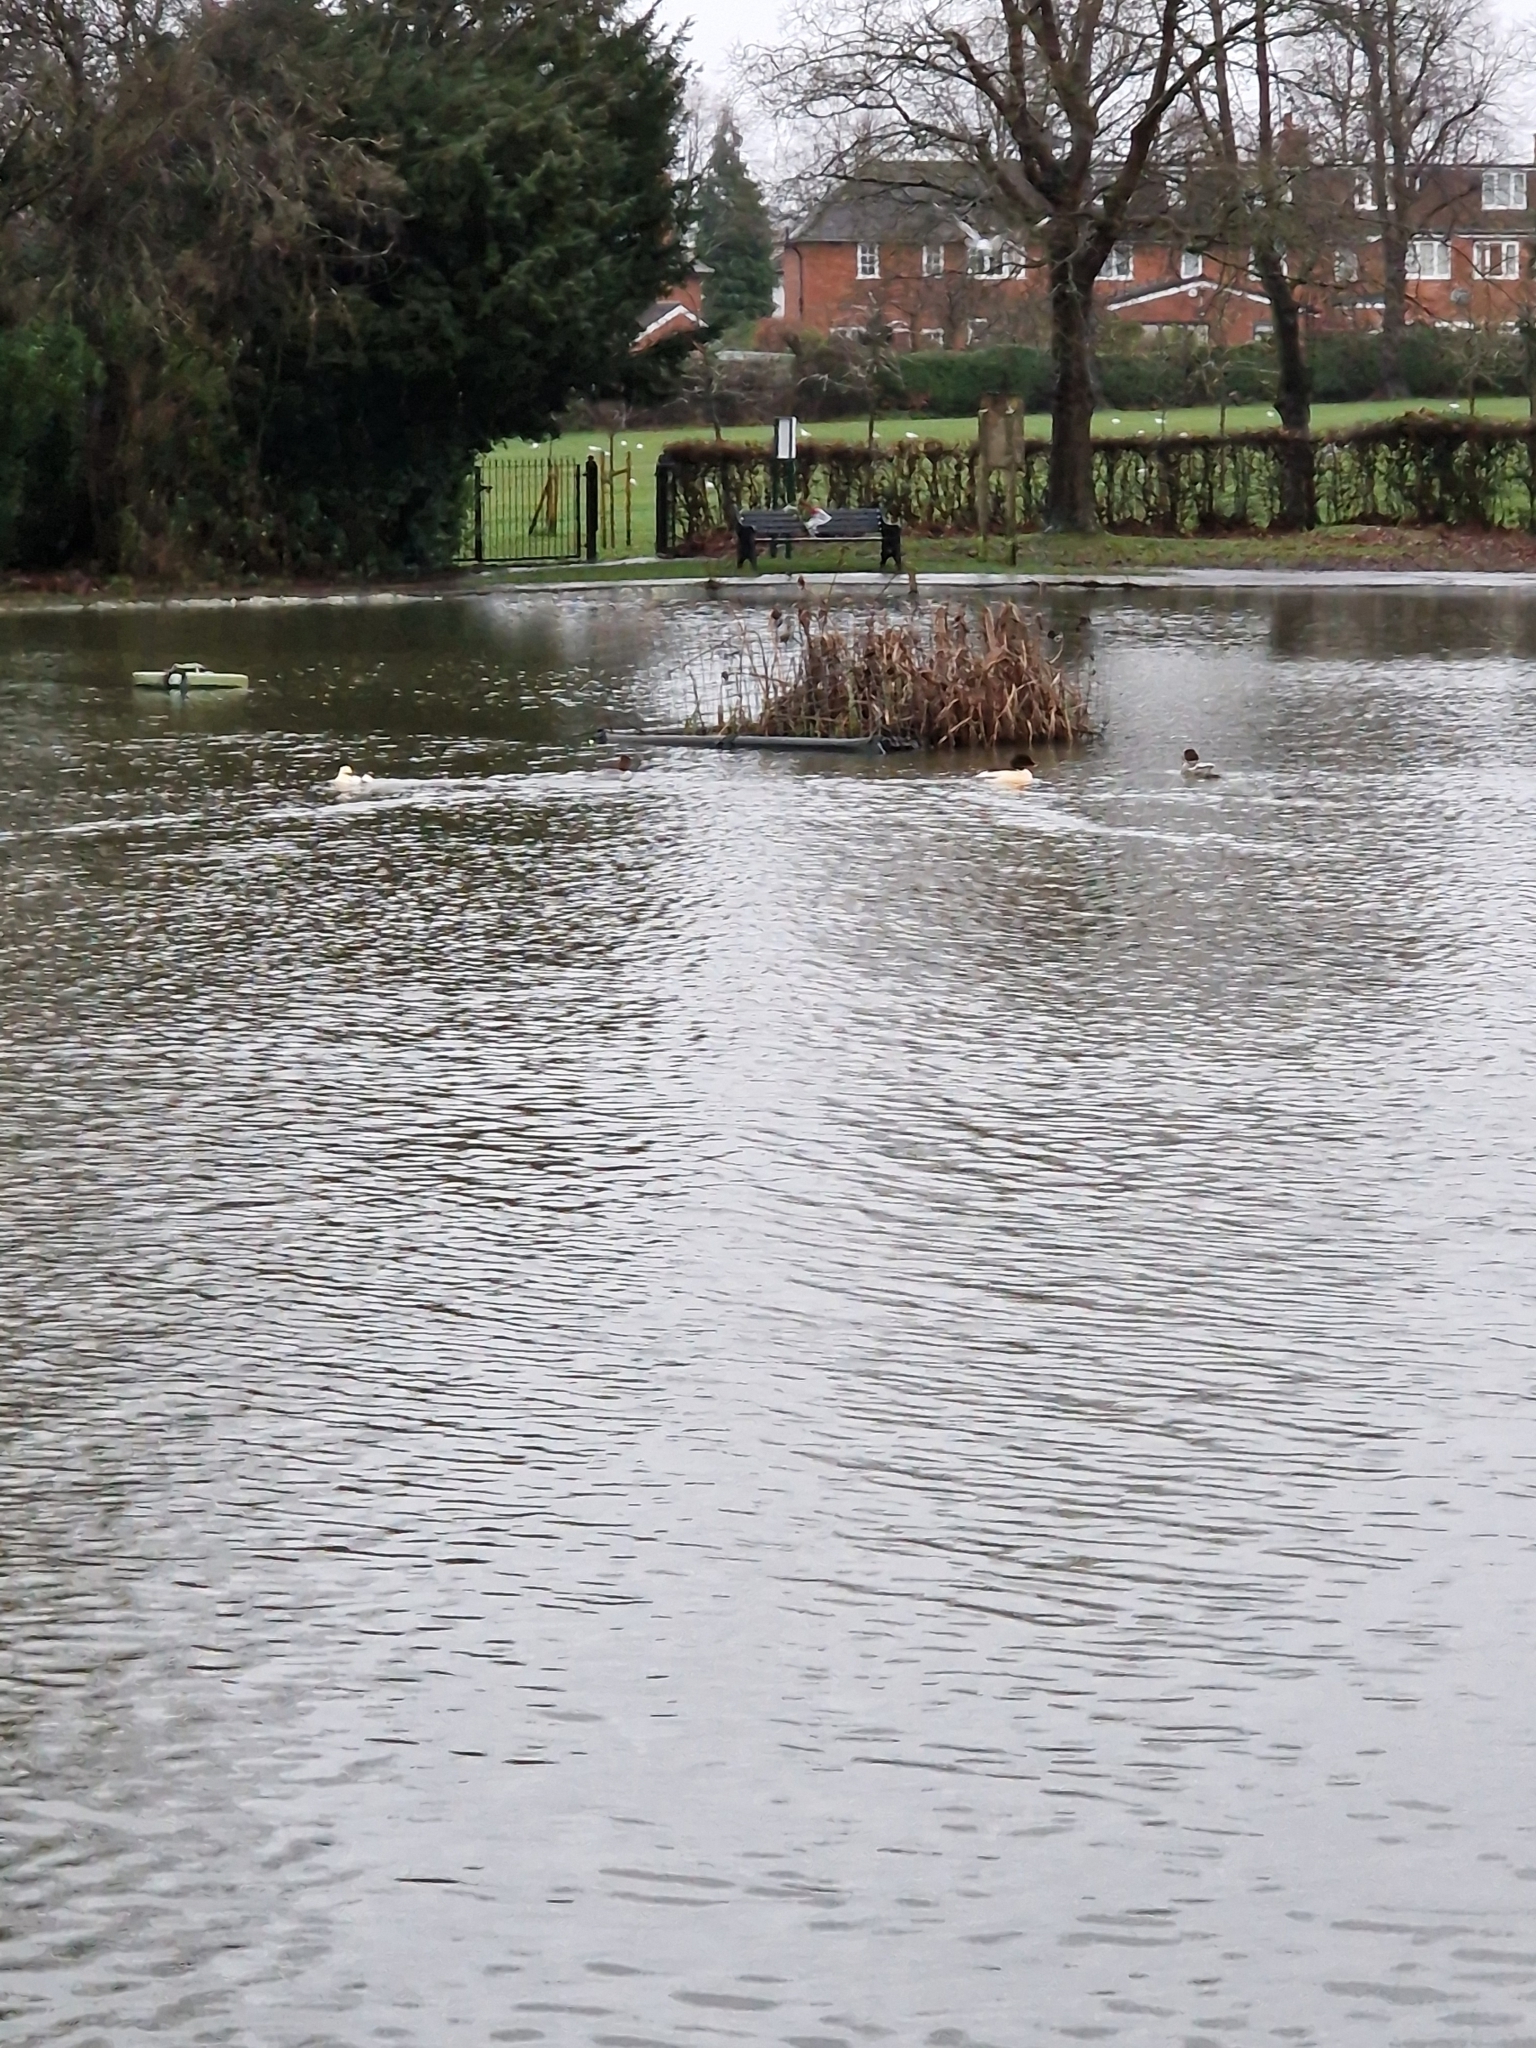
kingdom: Animalia
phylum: Chordata
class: Aves
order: Anseriformes
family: Anatidae
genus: Mergus
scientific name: Mergus merganser
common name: Common merganser
